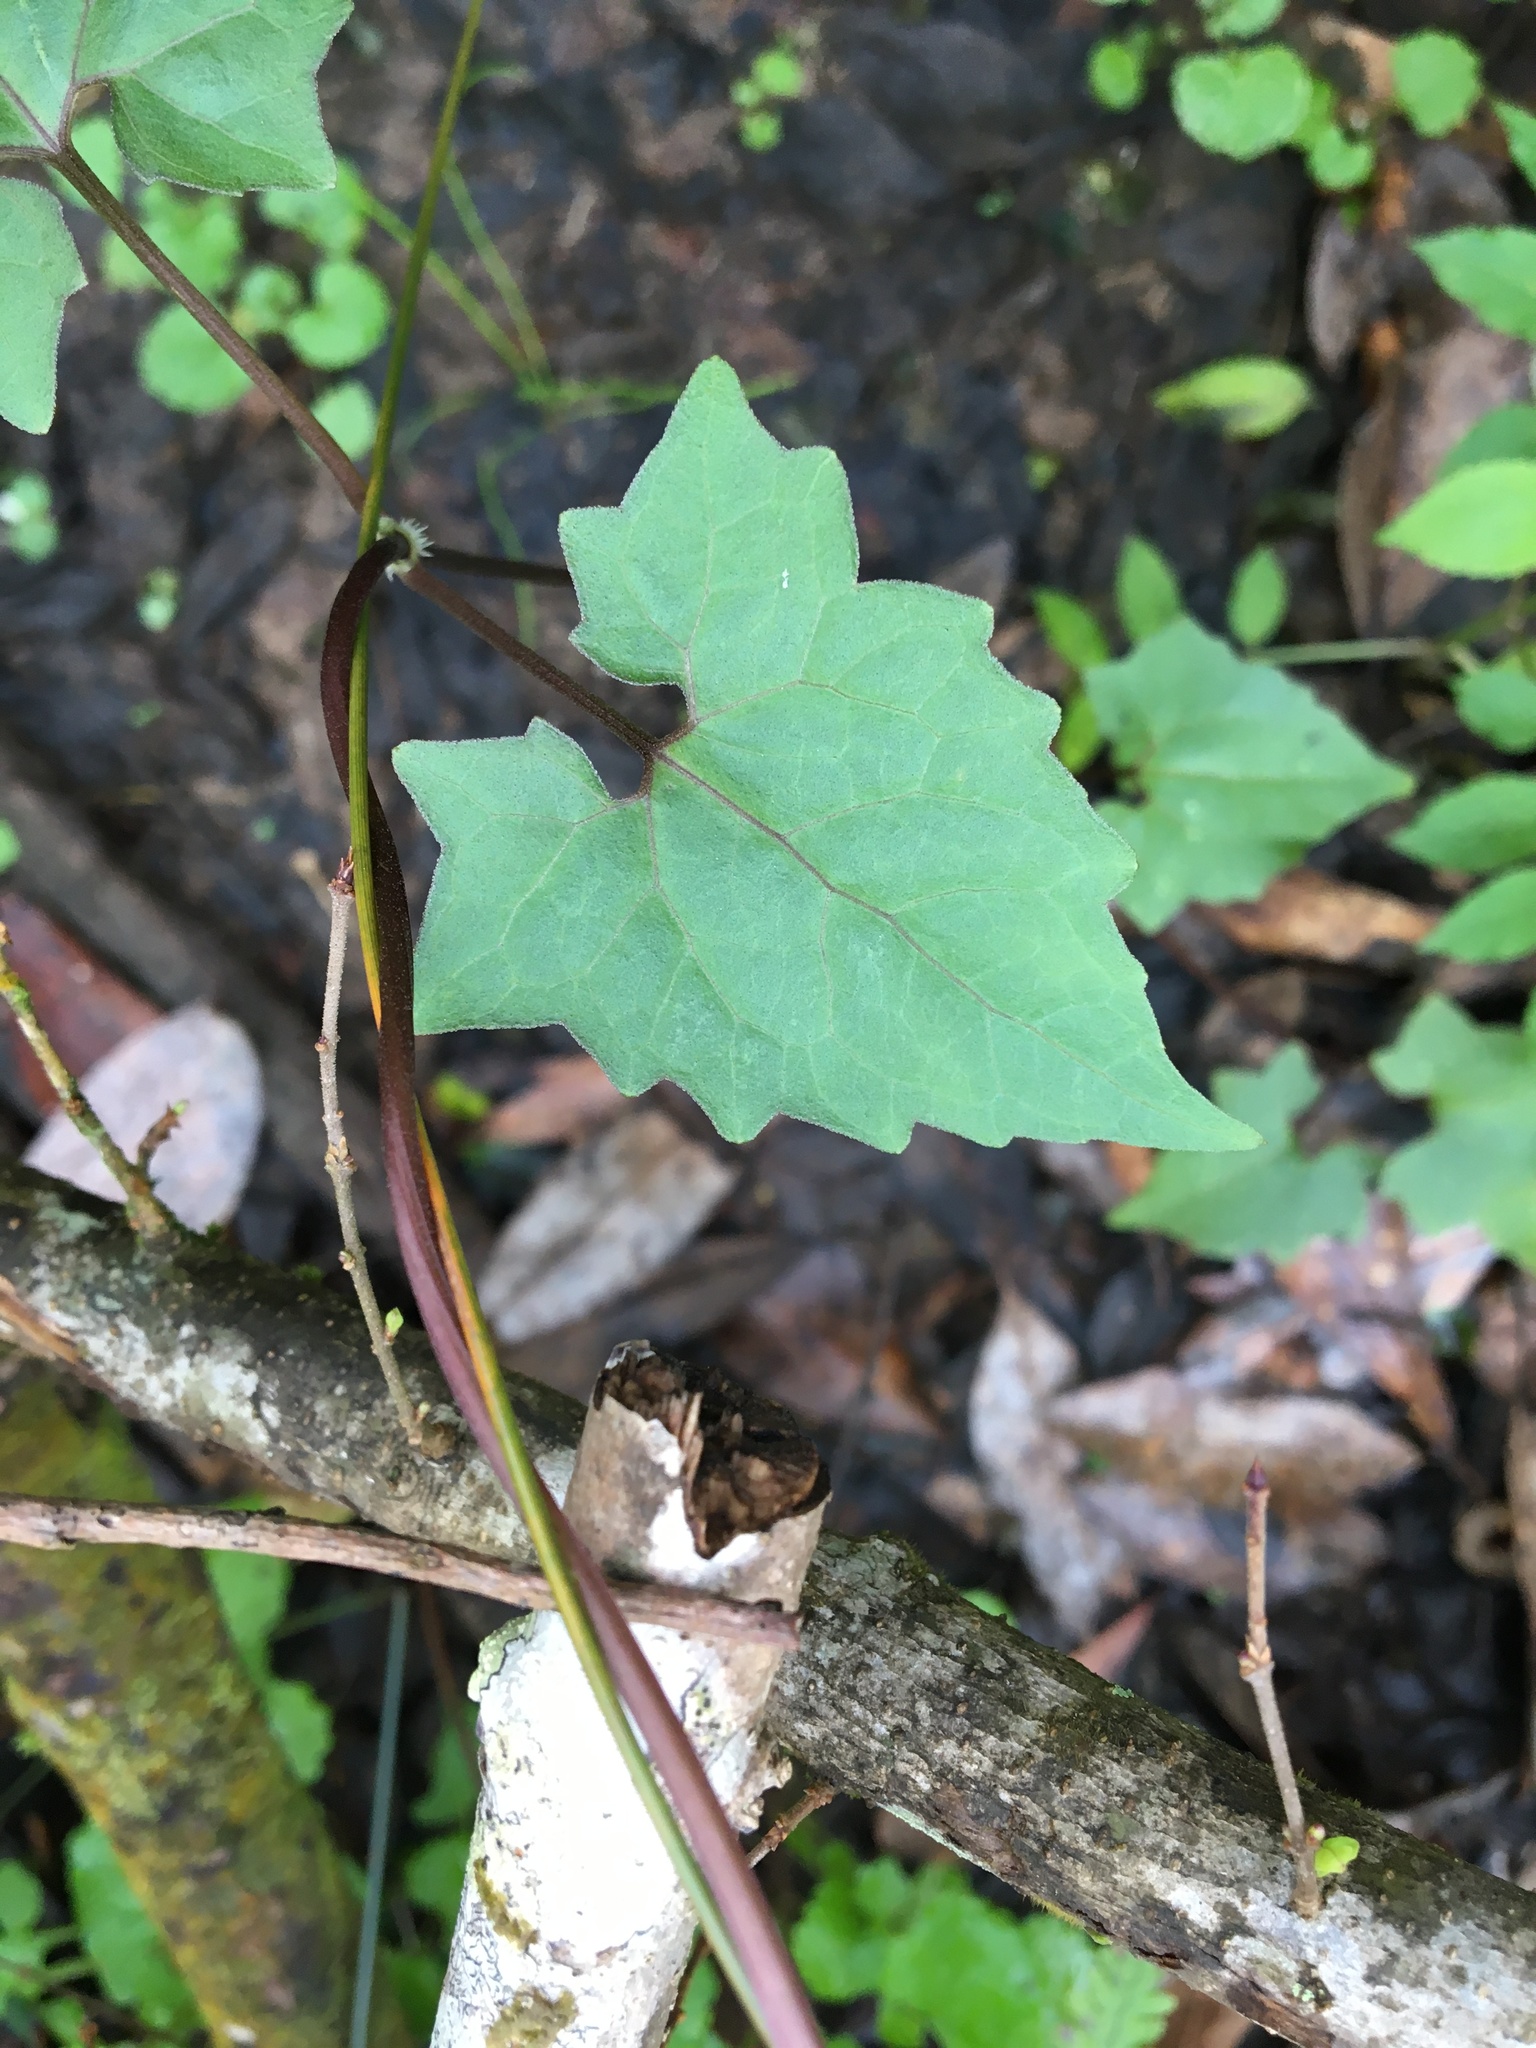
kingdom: Plantae
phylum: Tracheophyta
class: Magnoliopsida
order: Asterales
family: Asteraceae
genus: Mikania
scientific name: Mikania scandens
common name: Climbing hempvine
